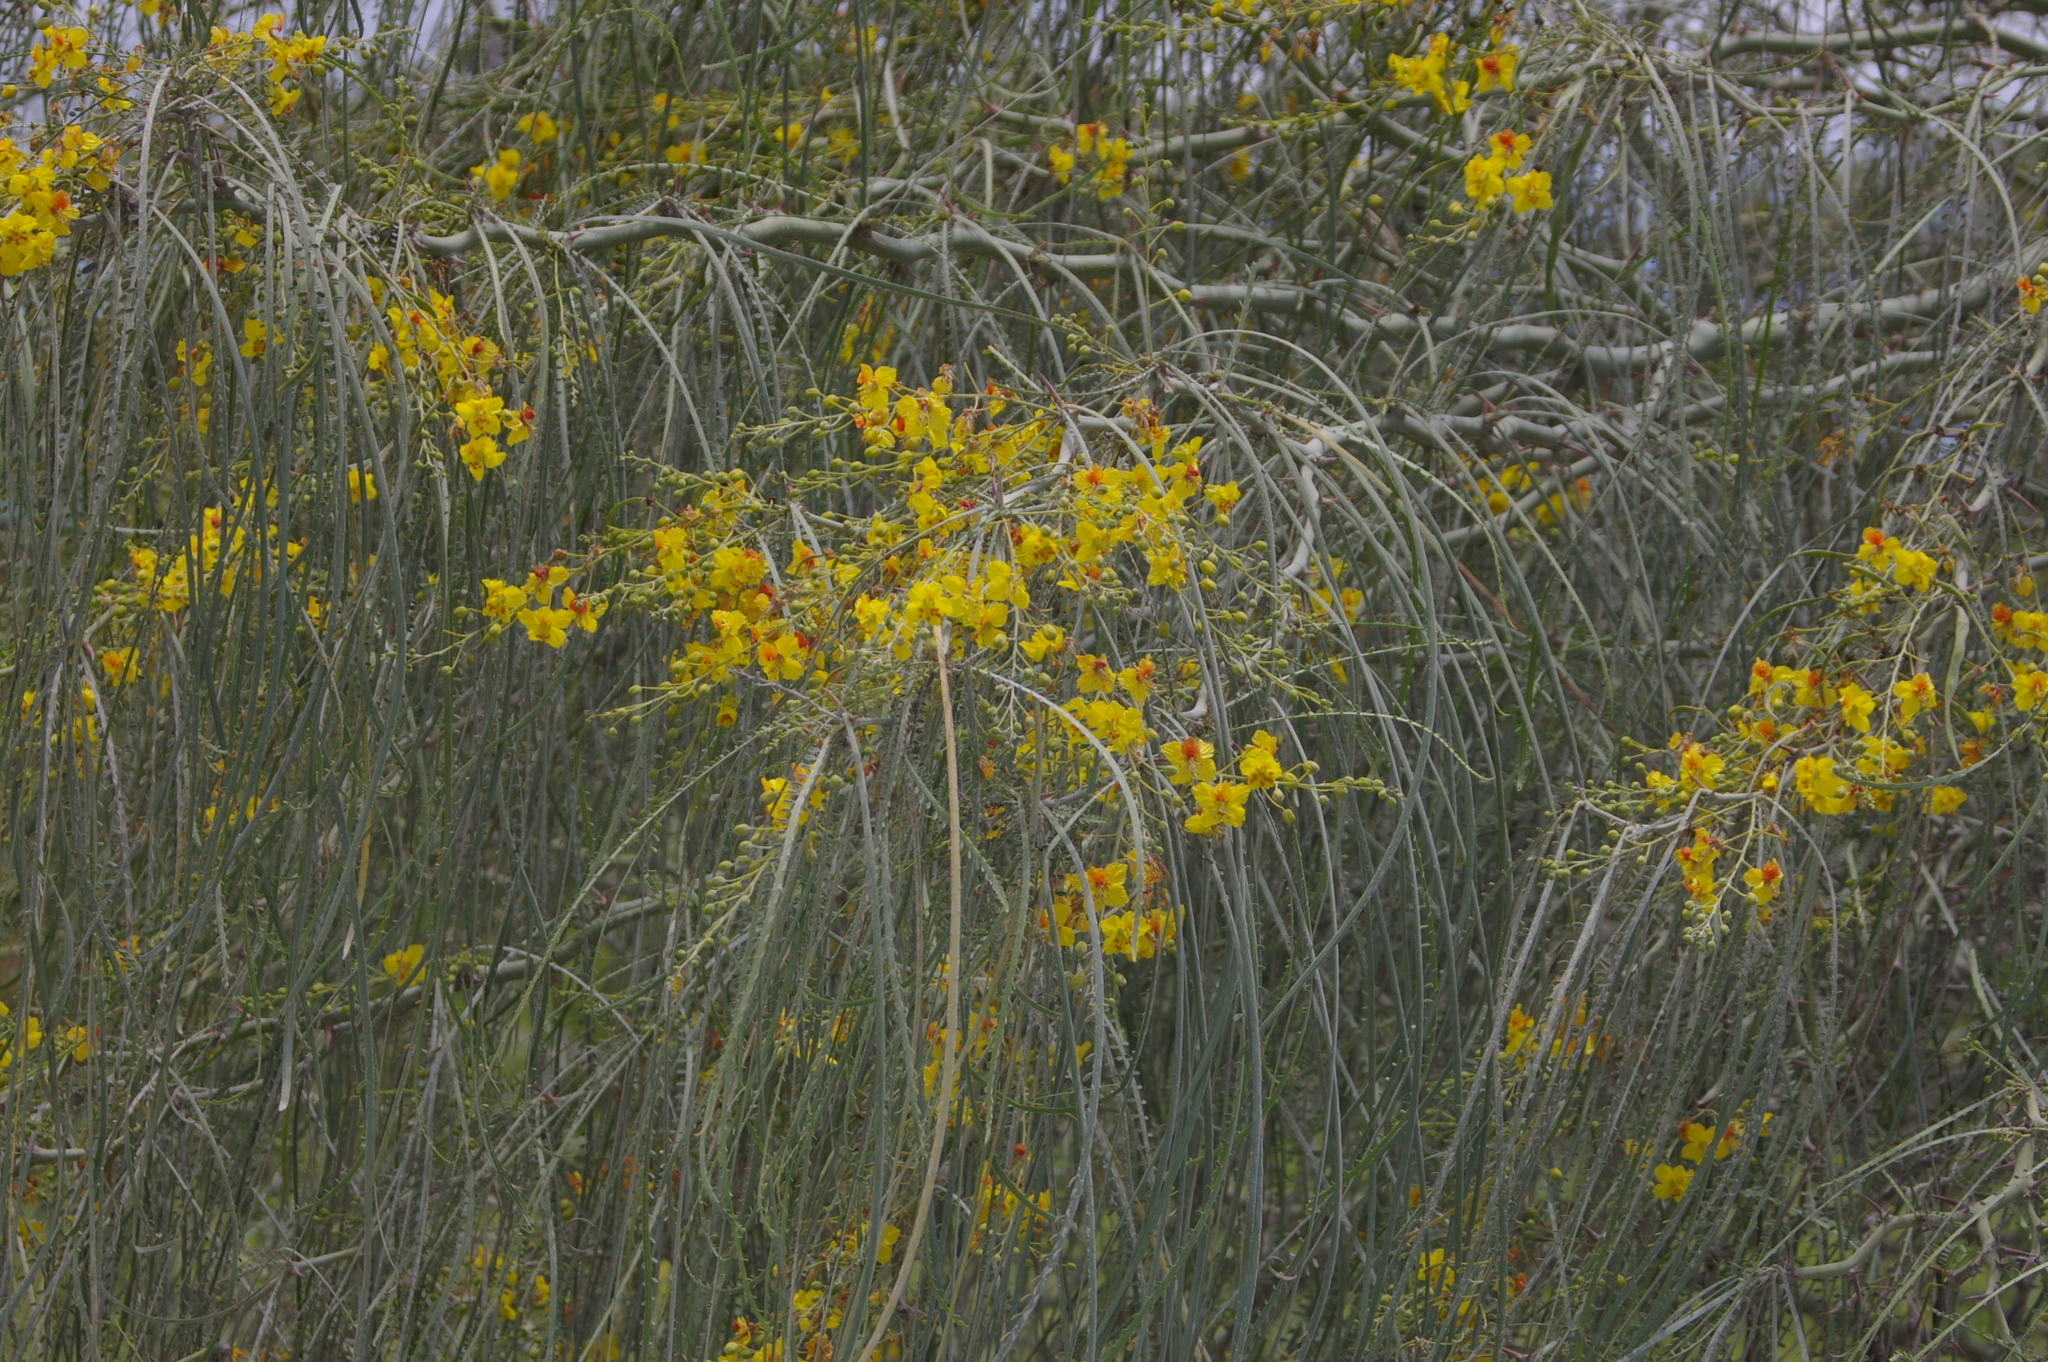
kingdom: Plantae
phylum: Tracheophyta
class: Magnoliopsida
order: Fabales
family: Fabaceae
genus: Parkinsonia
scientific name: Parkinsonia aculeata
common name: Jerusalem thorn
